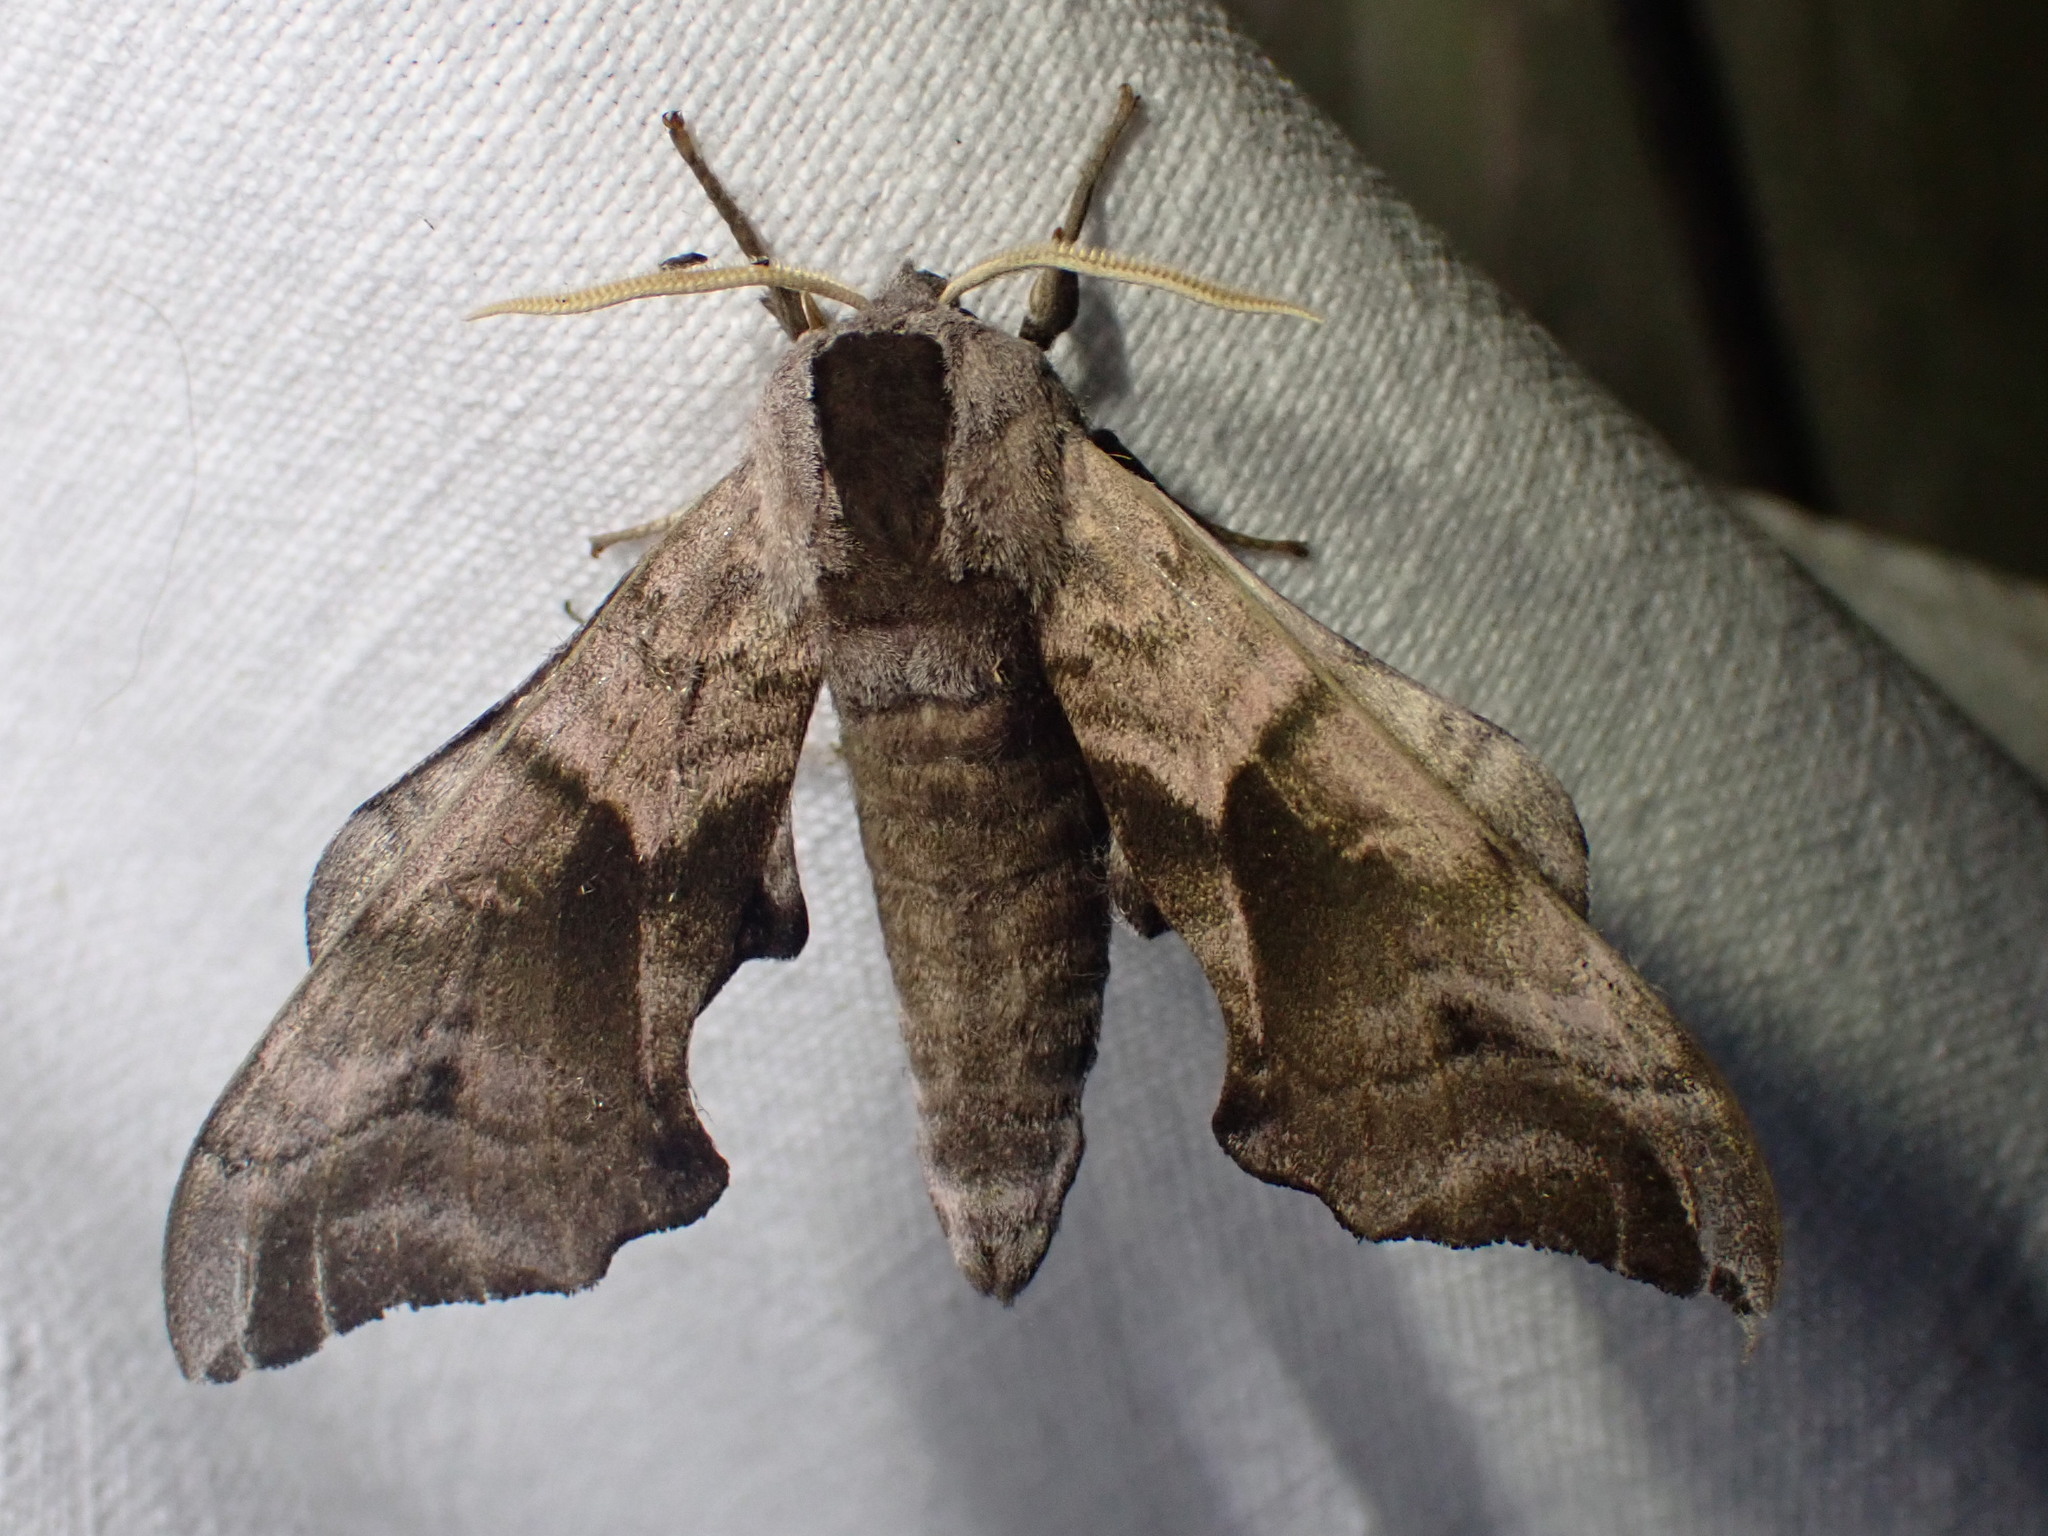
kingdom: Animalia
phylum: Arthropoda
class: Insecta
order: Lepidoptera
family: Sphingidae
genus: Smerinthus
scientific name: Smerinthus ocellata
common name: Eyed hawk-moth
